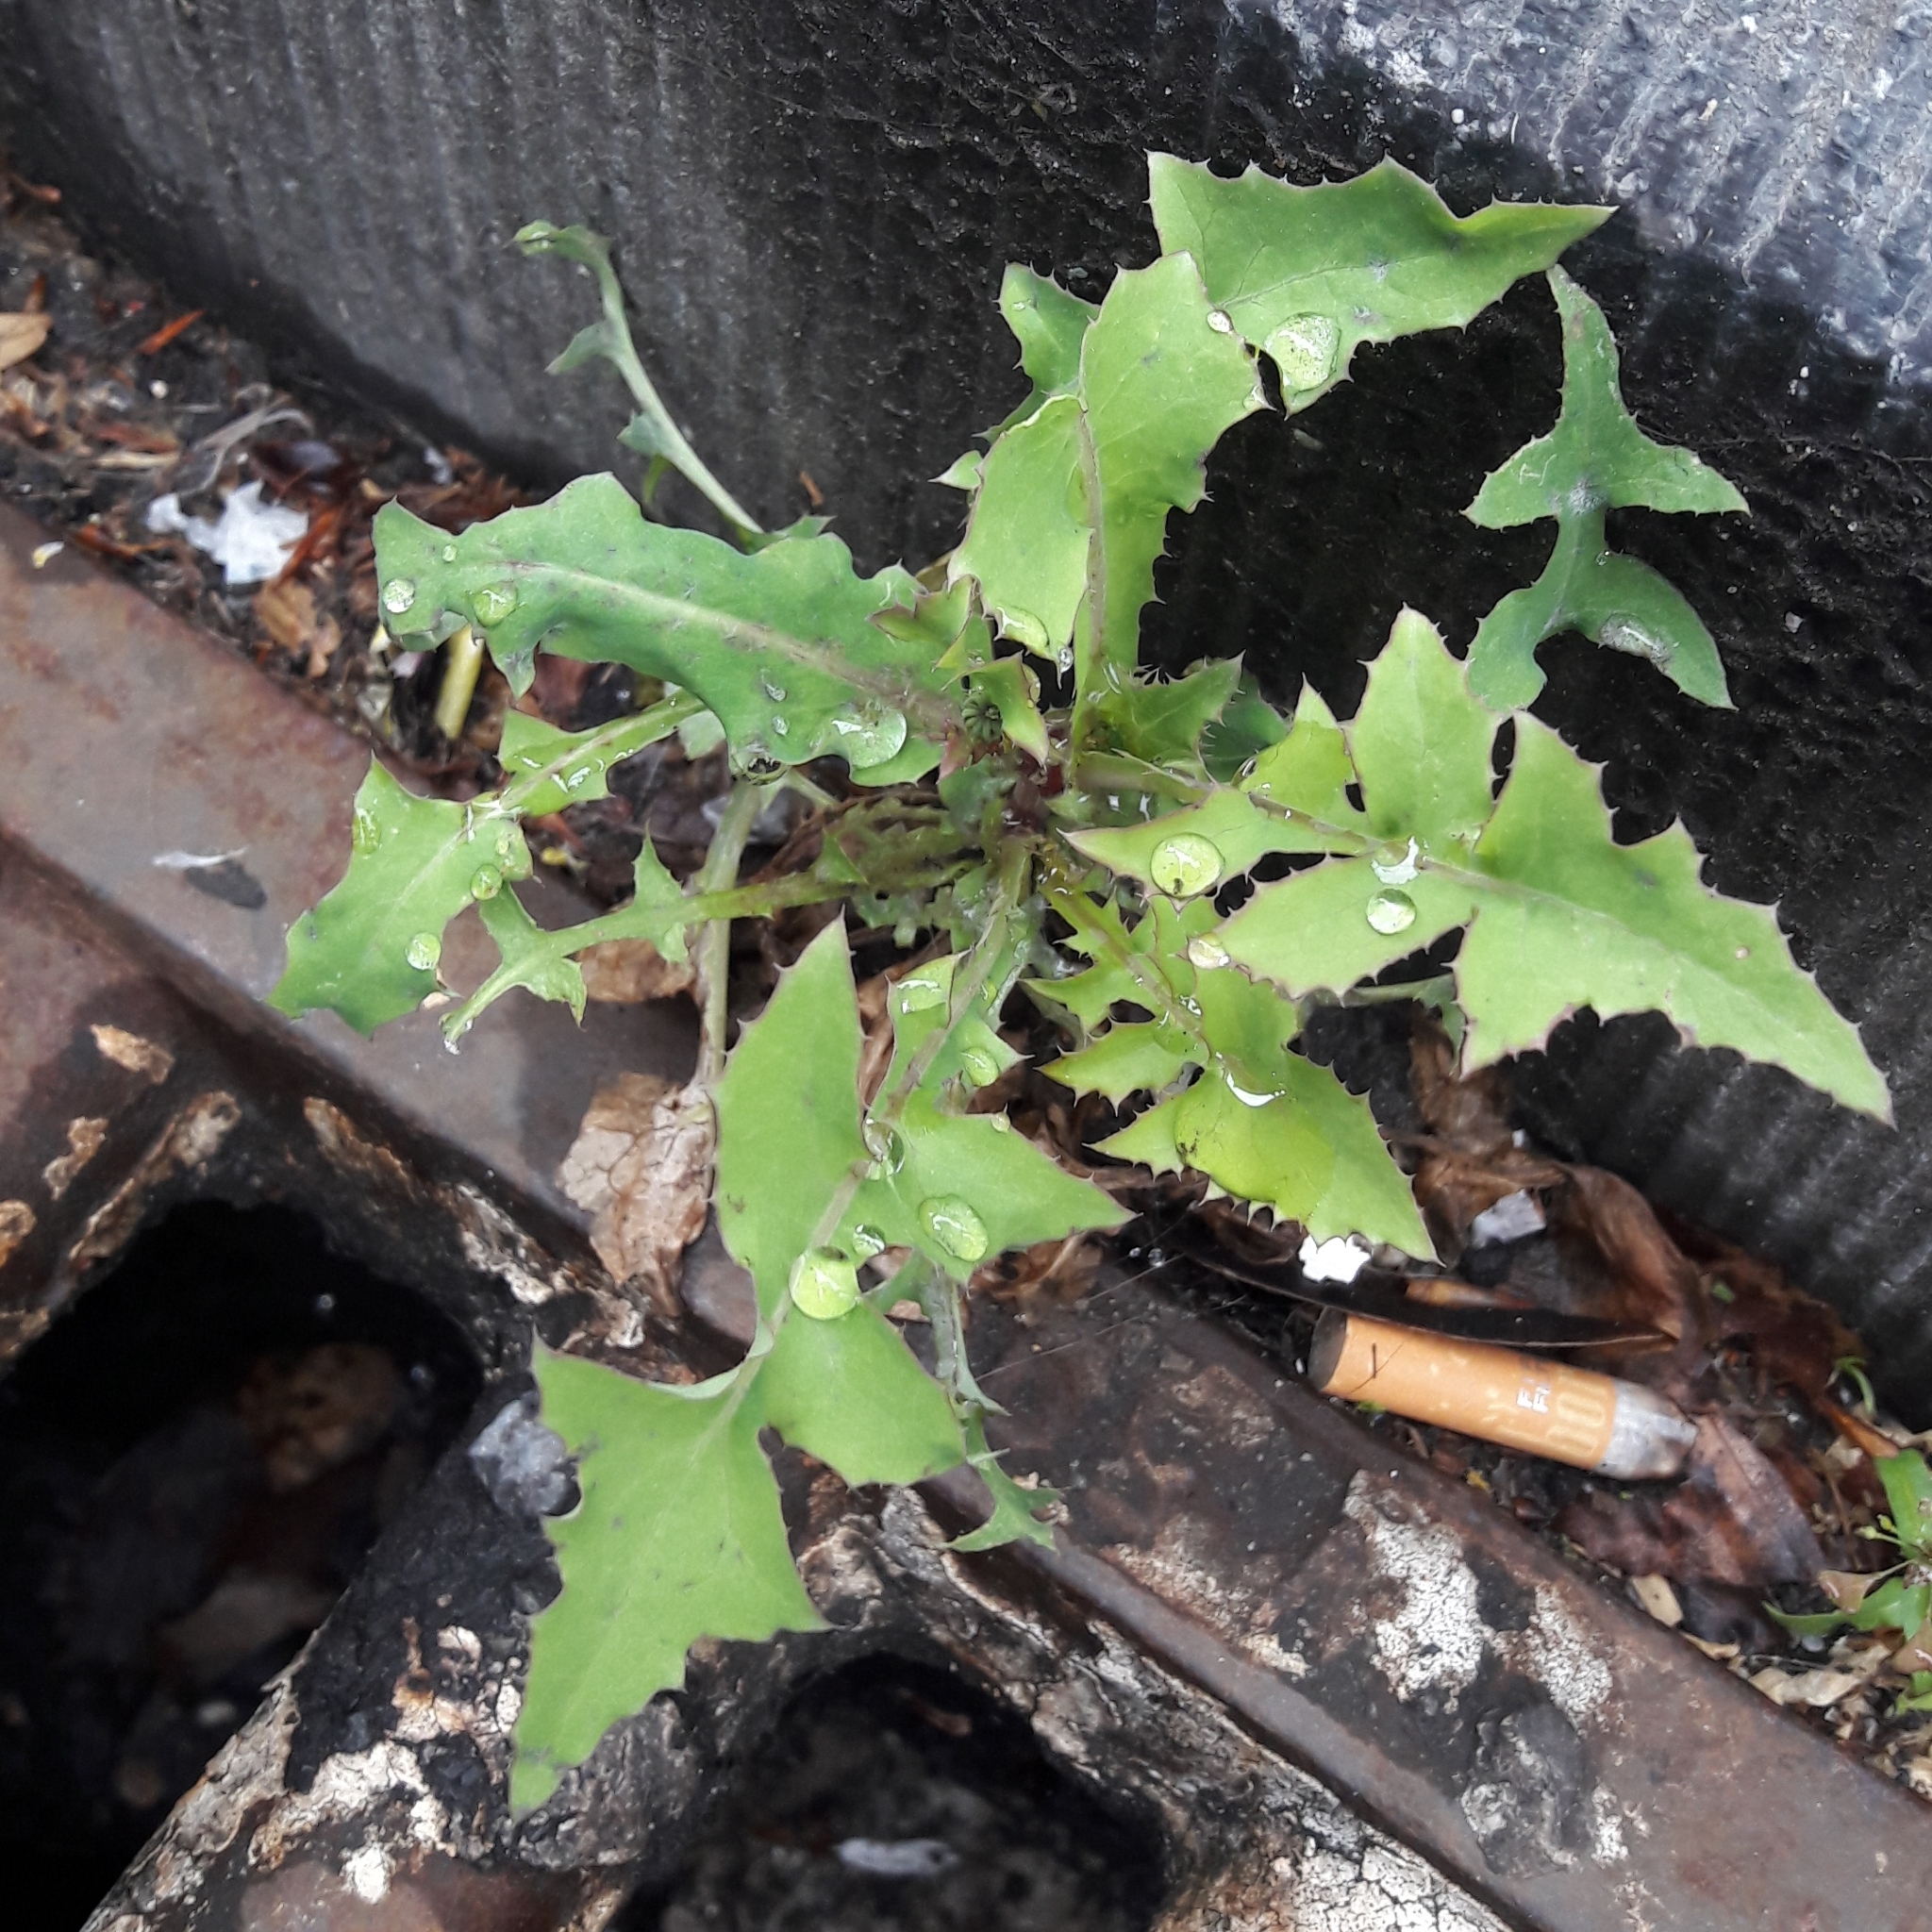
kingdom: Plantae
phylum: Tracheophyta
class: Magnoliopsida
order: Asterales
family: Asteraceae
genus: Sonchus
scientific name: Sonchus oleraceus
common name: Common sowthistle
